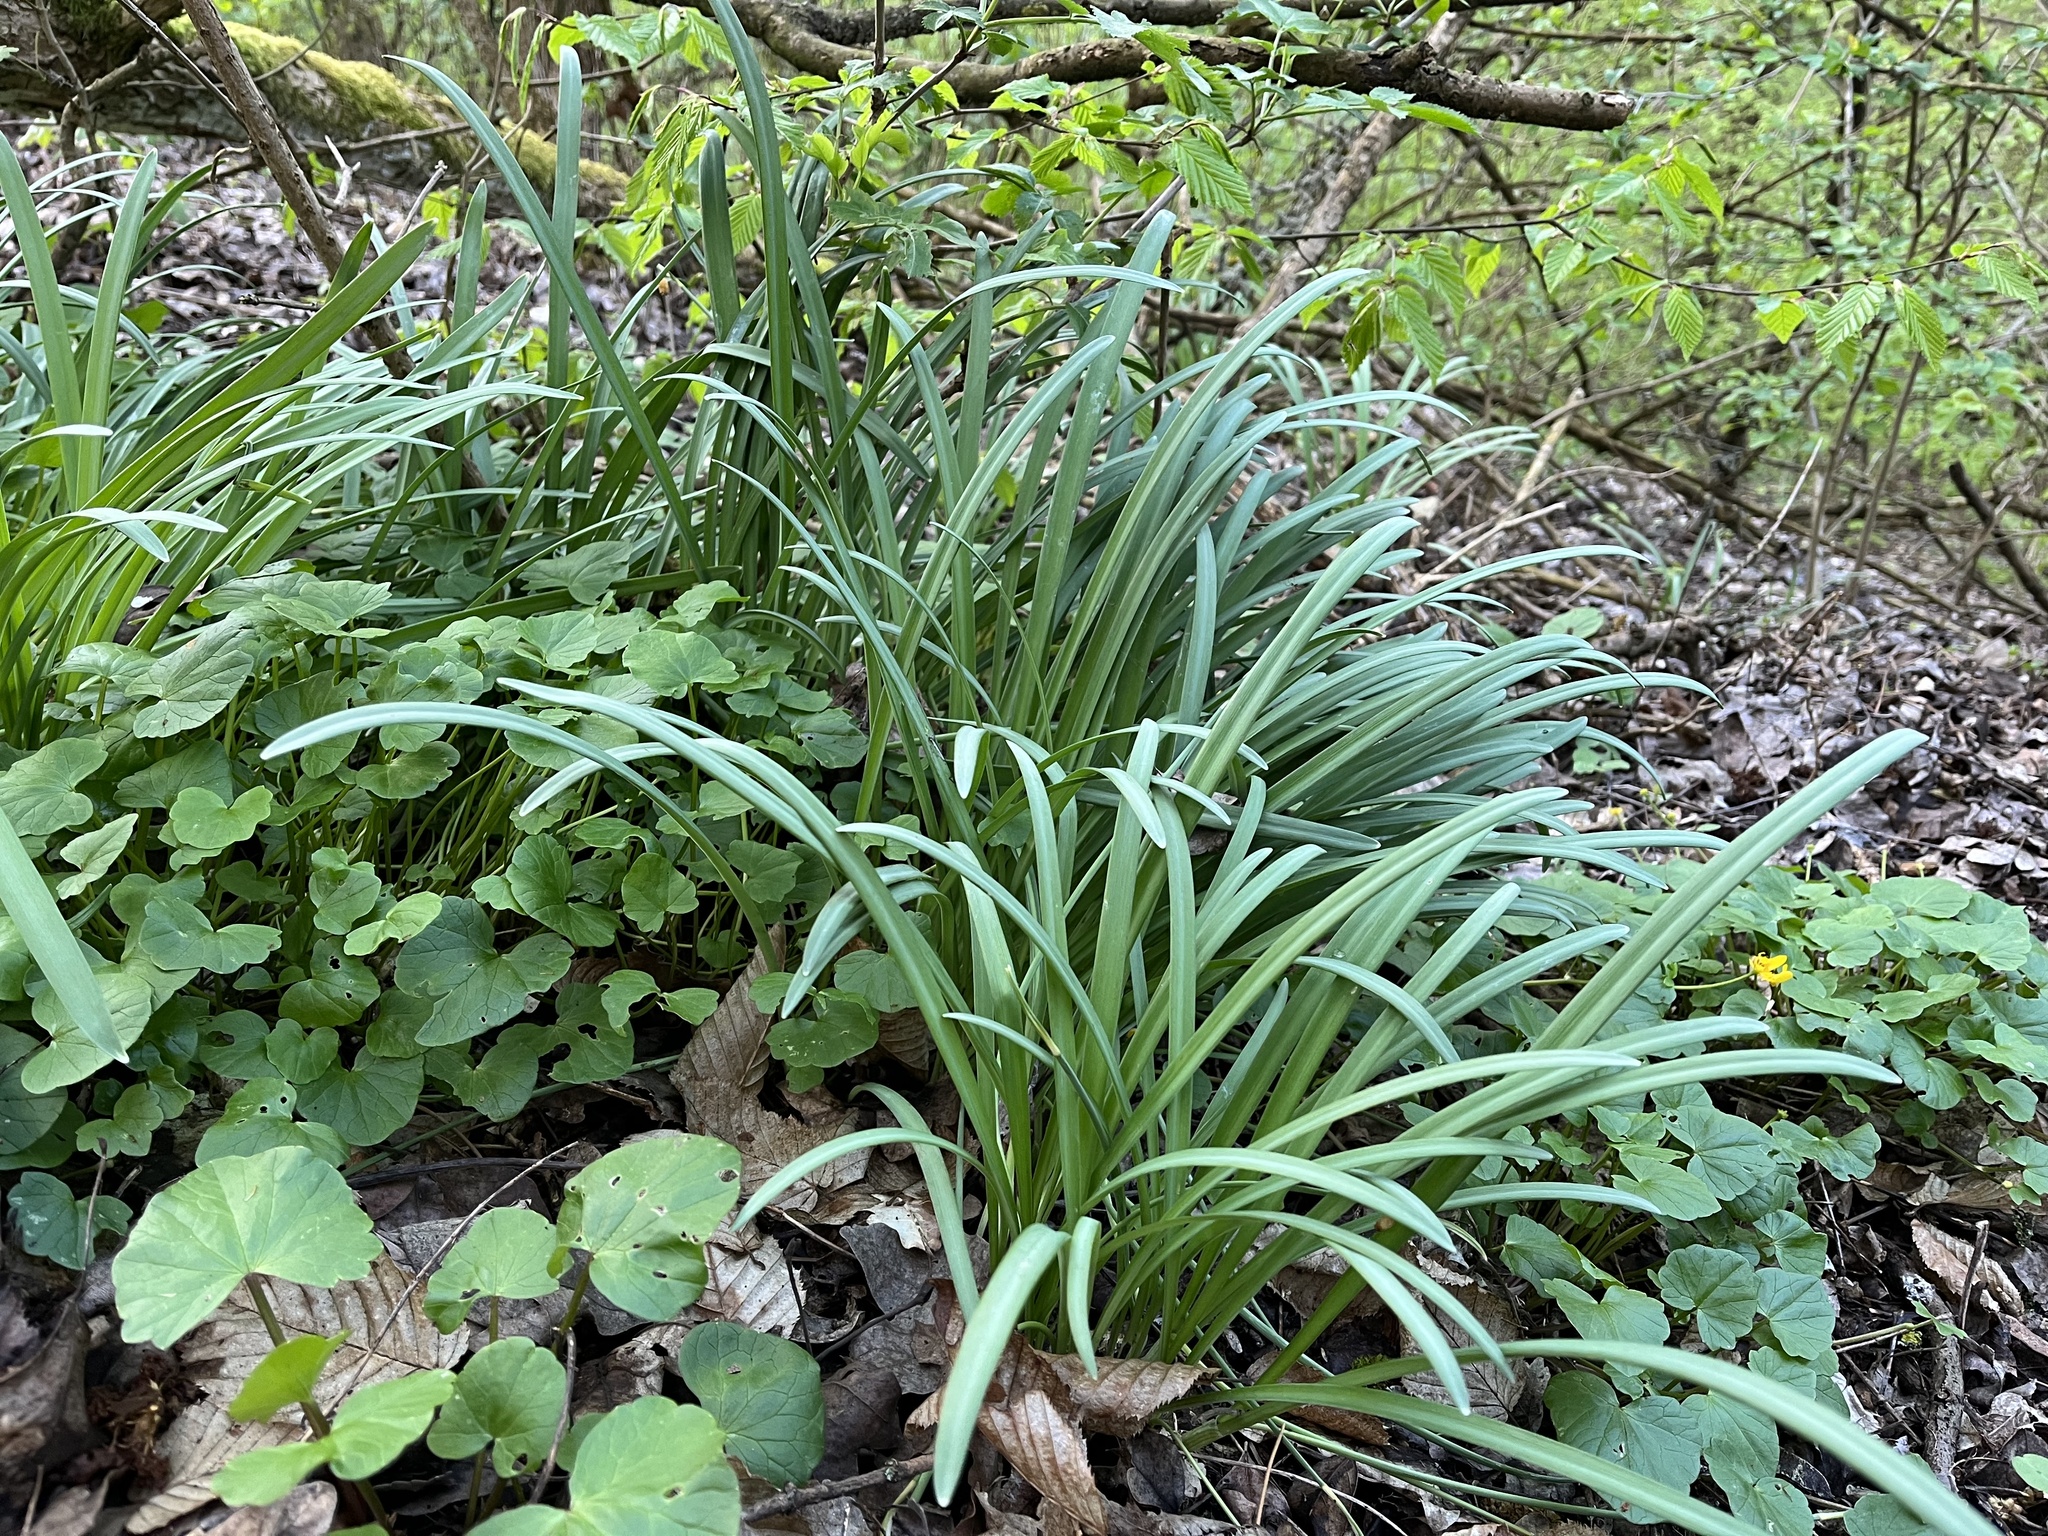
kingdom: Plantae
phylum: Tracheophyta
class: Liliopsida
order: Asparagales
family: Amaryllidaceae
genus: Galanthus
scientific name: Galanthus nivalis
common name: Snowdrop
